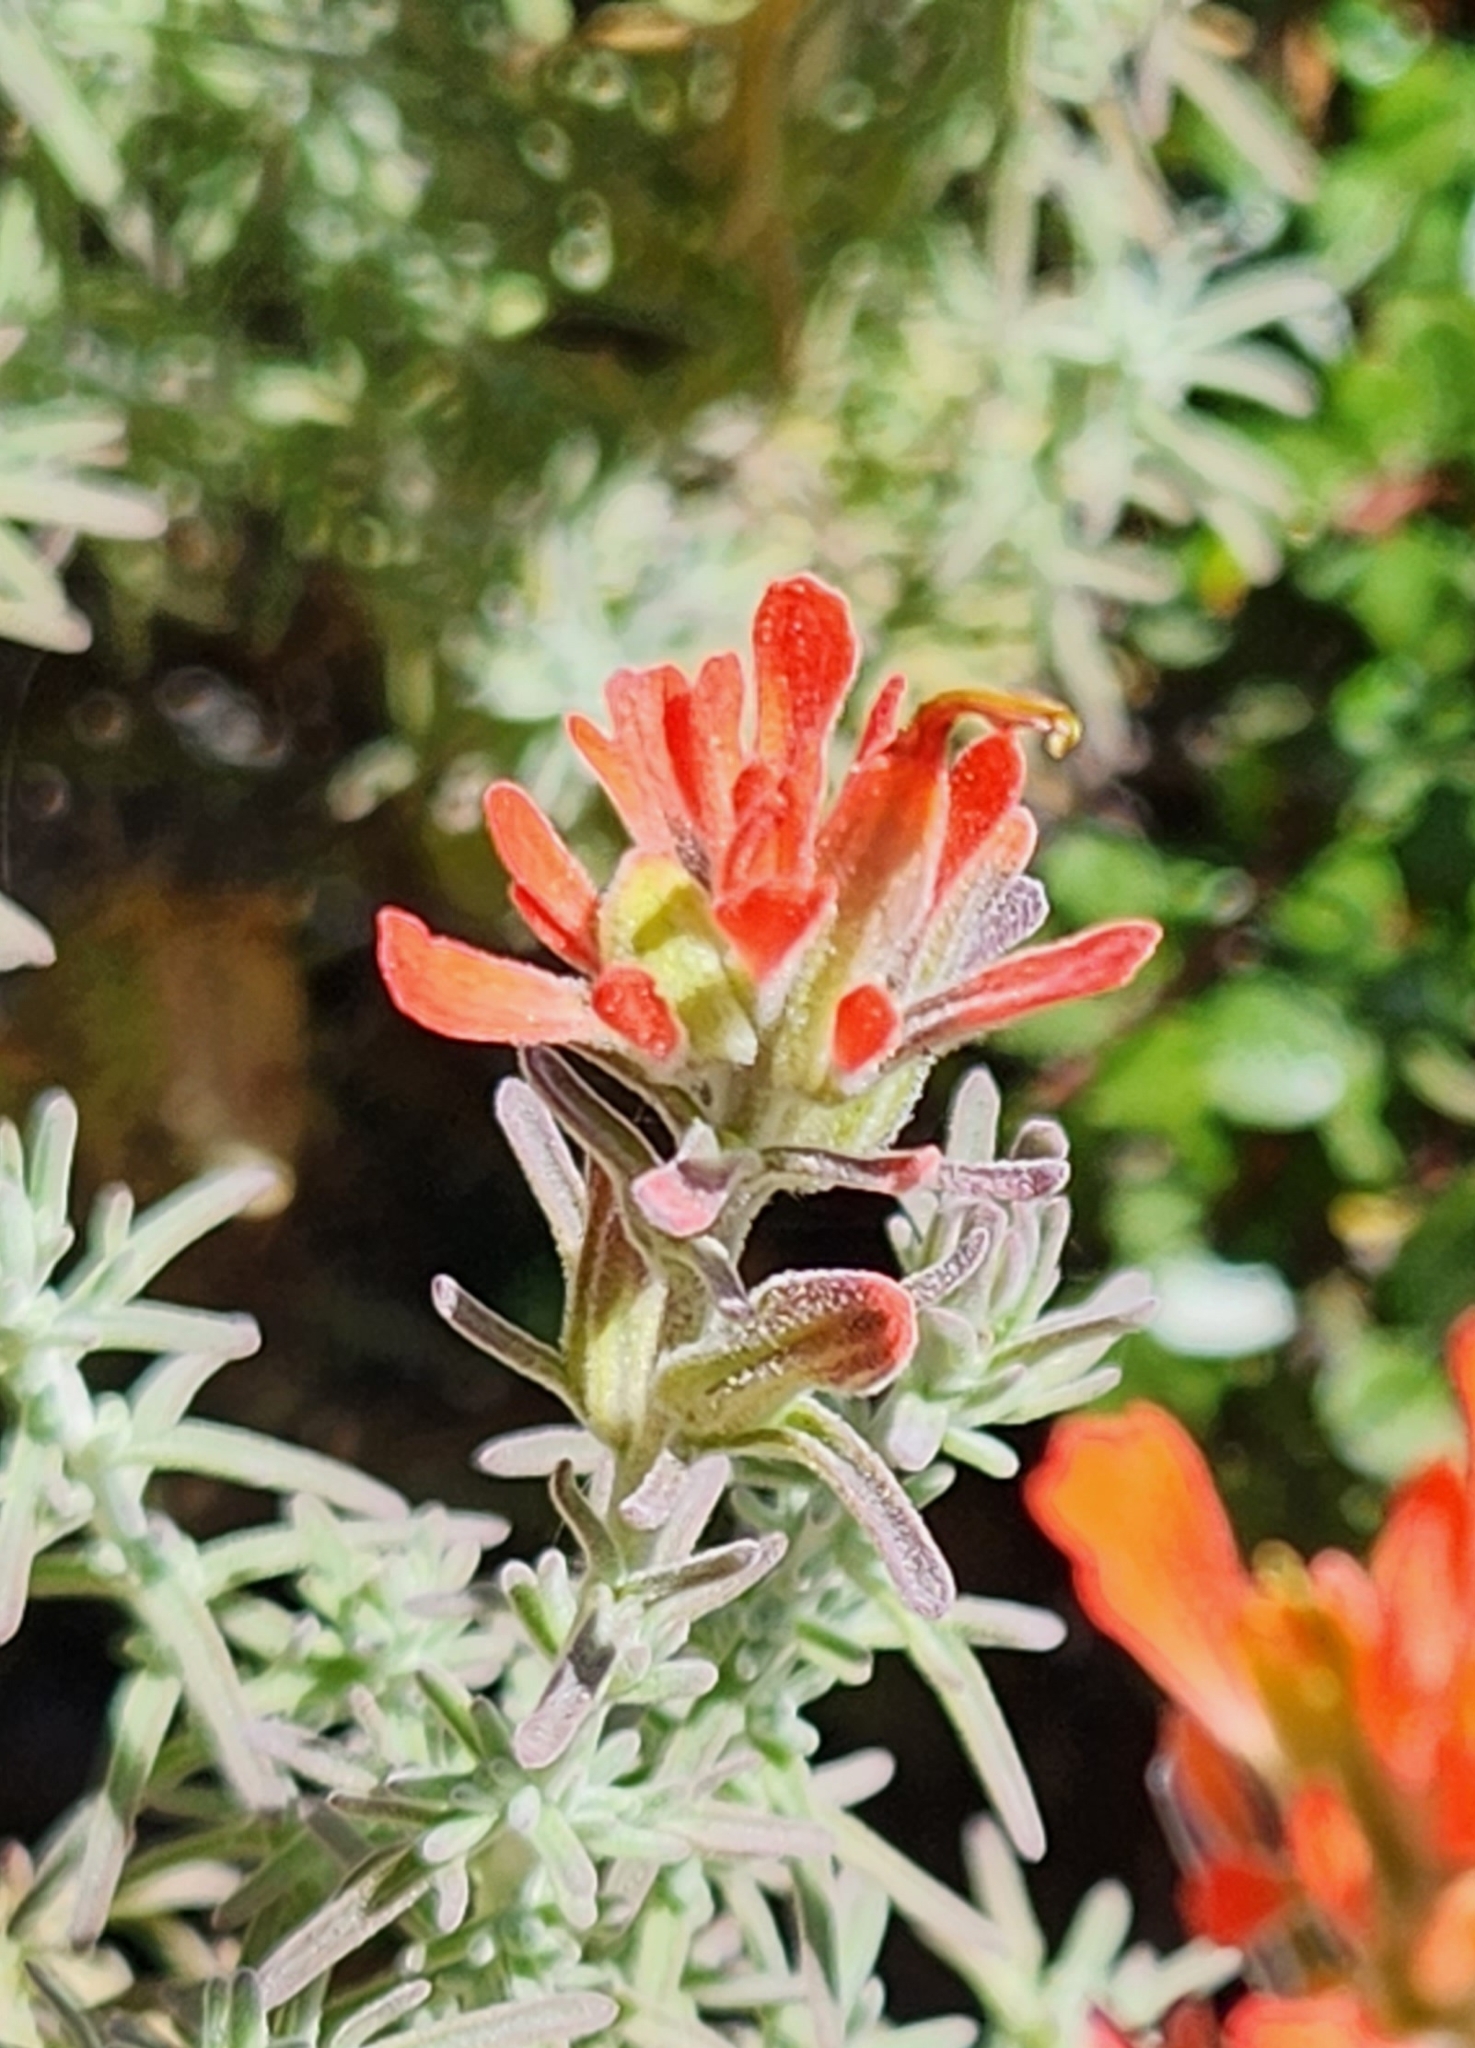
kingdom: Plantae
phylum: Tracheophyta
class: Magnoliopsida
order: Lamiales
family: Orobanchaceae
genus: Castilleja
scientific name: Castilleja foliolosa
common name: Woolly indian paintbrush
